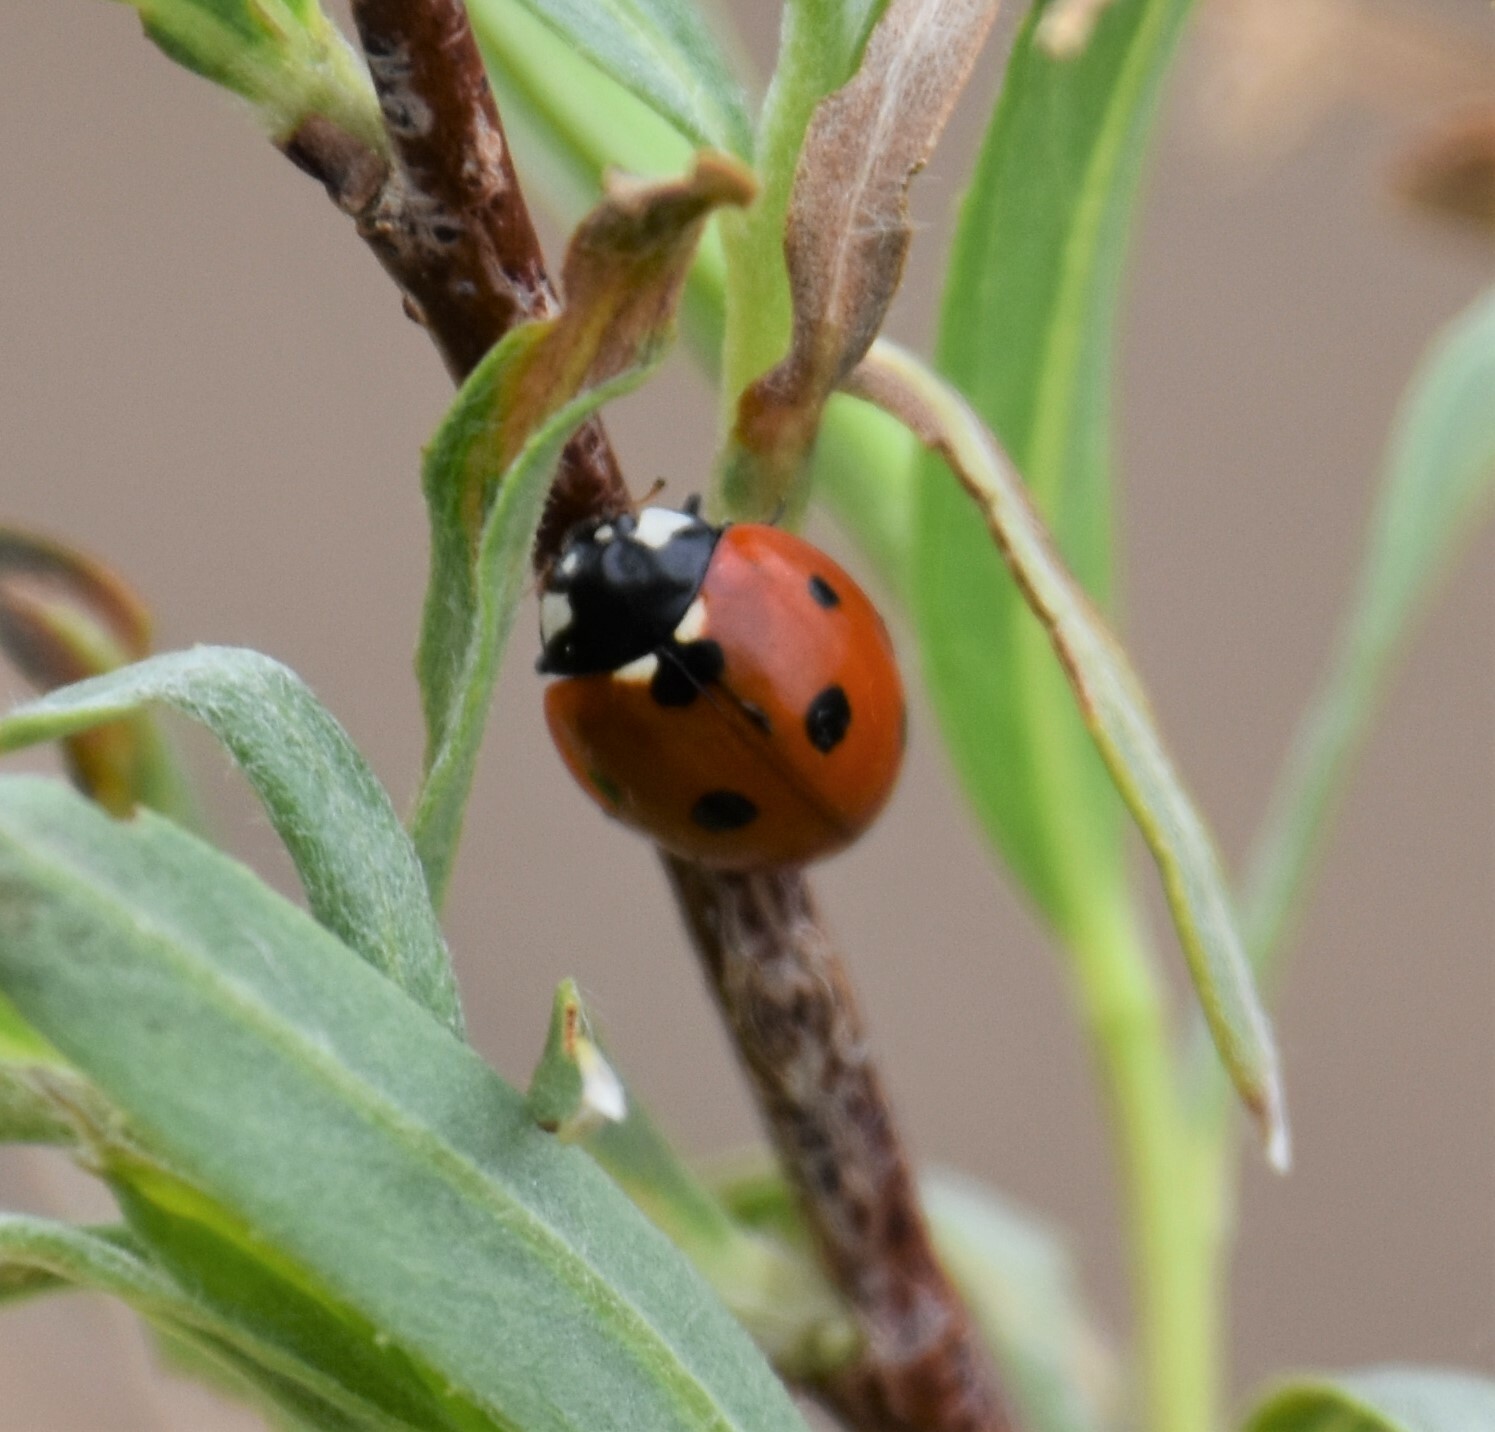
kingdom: Animalia
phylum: Arthropoda
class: Insecta
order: Coleoptera
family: Coccinellidae
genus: Coccinella
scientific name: Coccinella septempunctata
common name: Sevenspotted lady beetle
